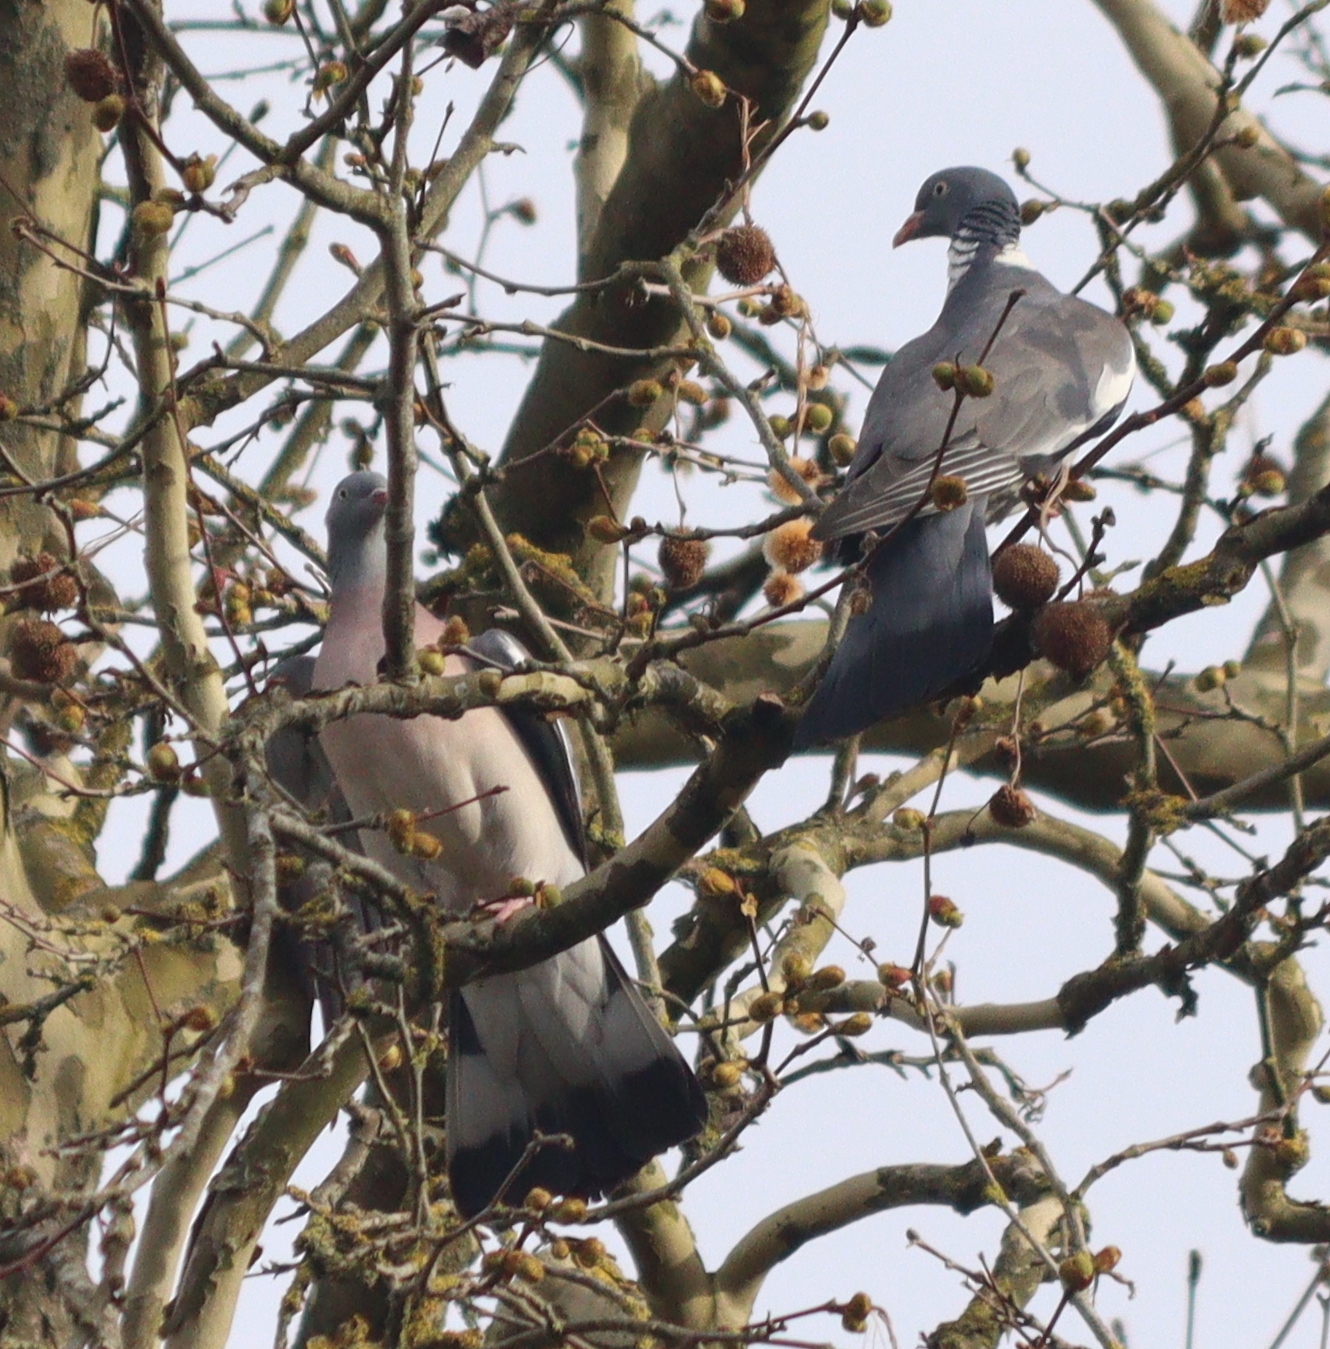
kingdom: Animalia
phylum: Chordata
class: Aves
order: Columbiformes
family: Columbidae
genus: Columba
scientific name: Columba palumbus
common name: Common wood pigeon
